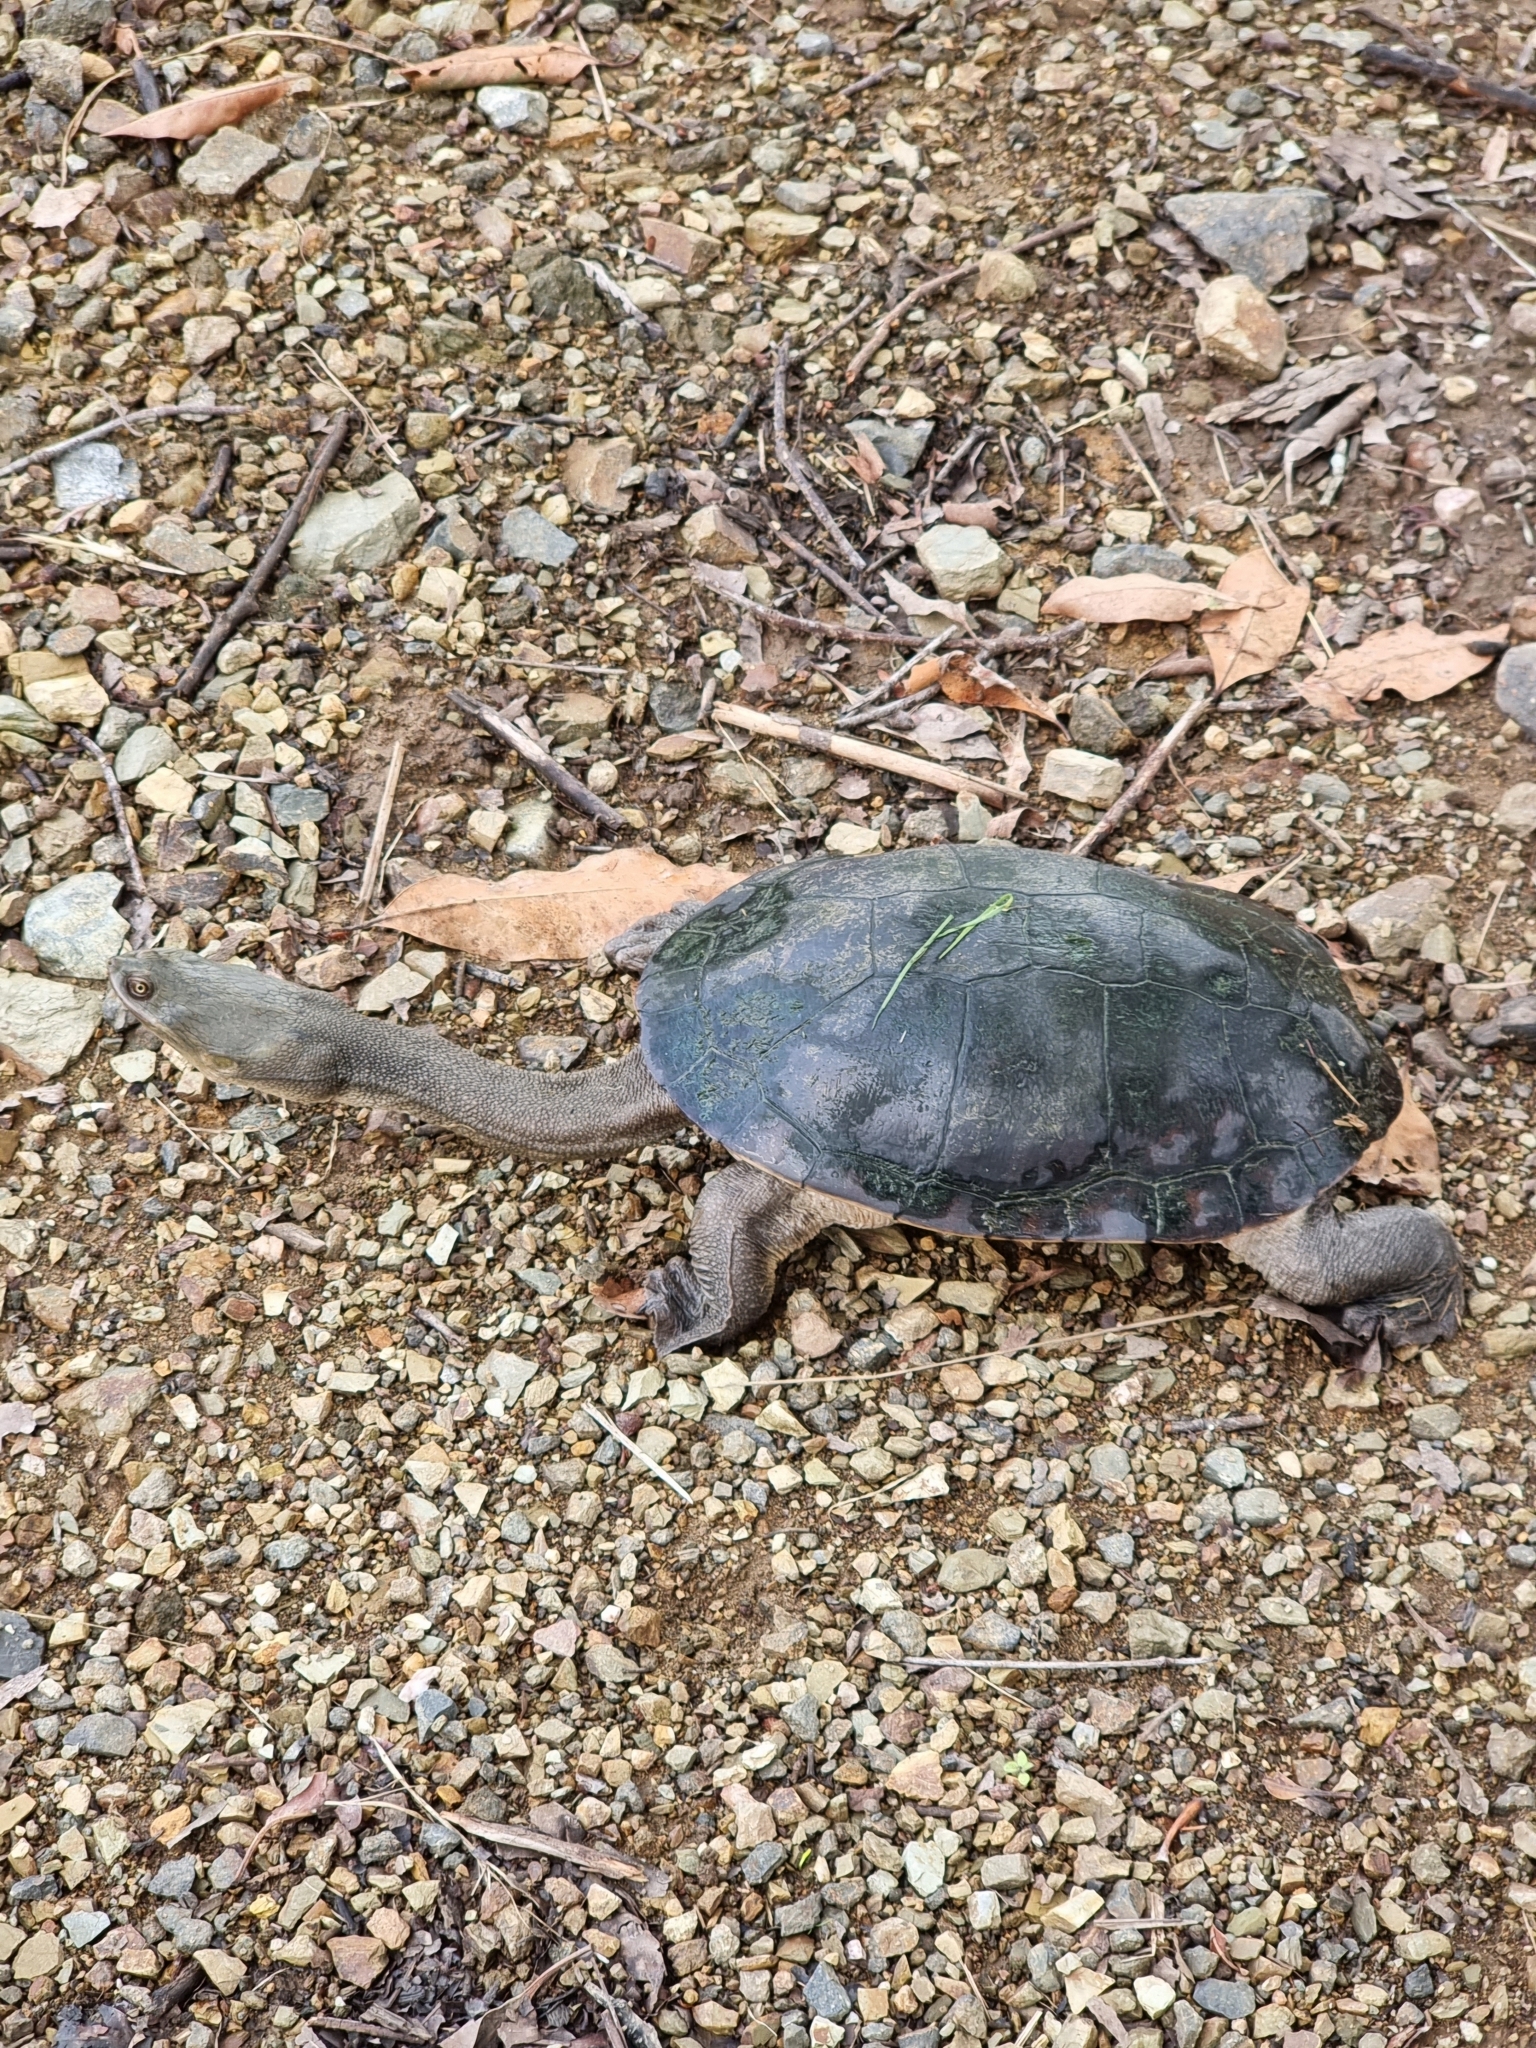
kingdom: Animalia
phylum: Chordata
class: Testudines
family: Chelidae
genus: Chelodina
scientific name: Chelodina expansa
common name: Giant snakeneck turtle
